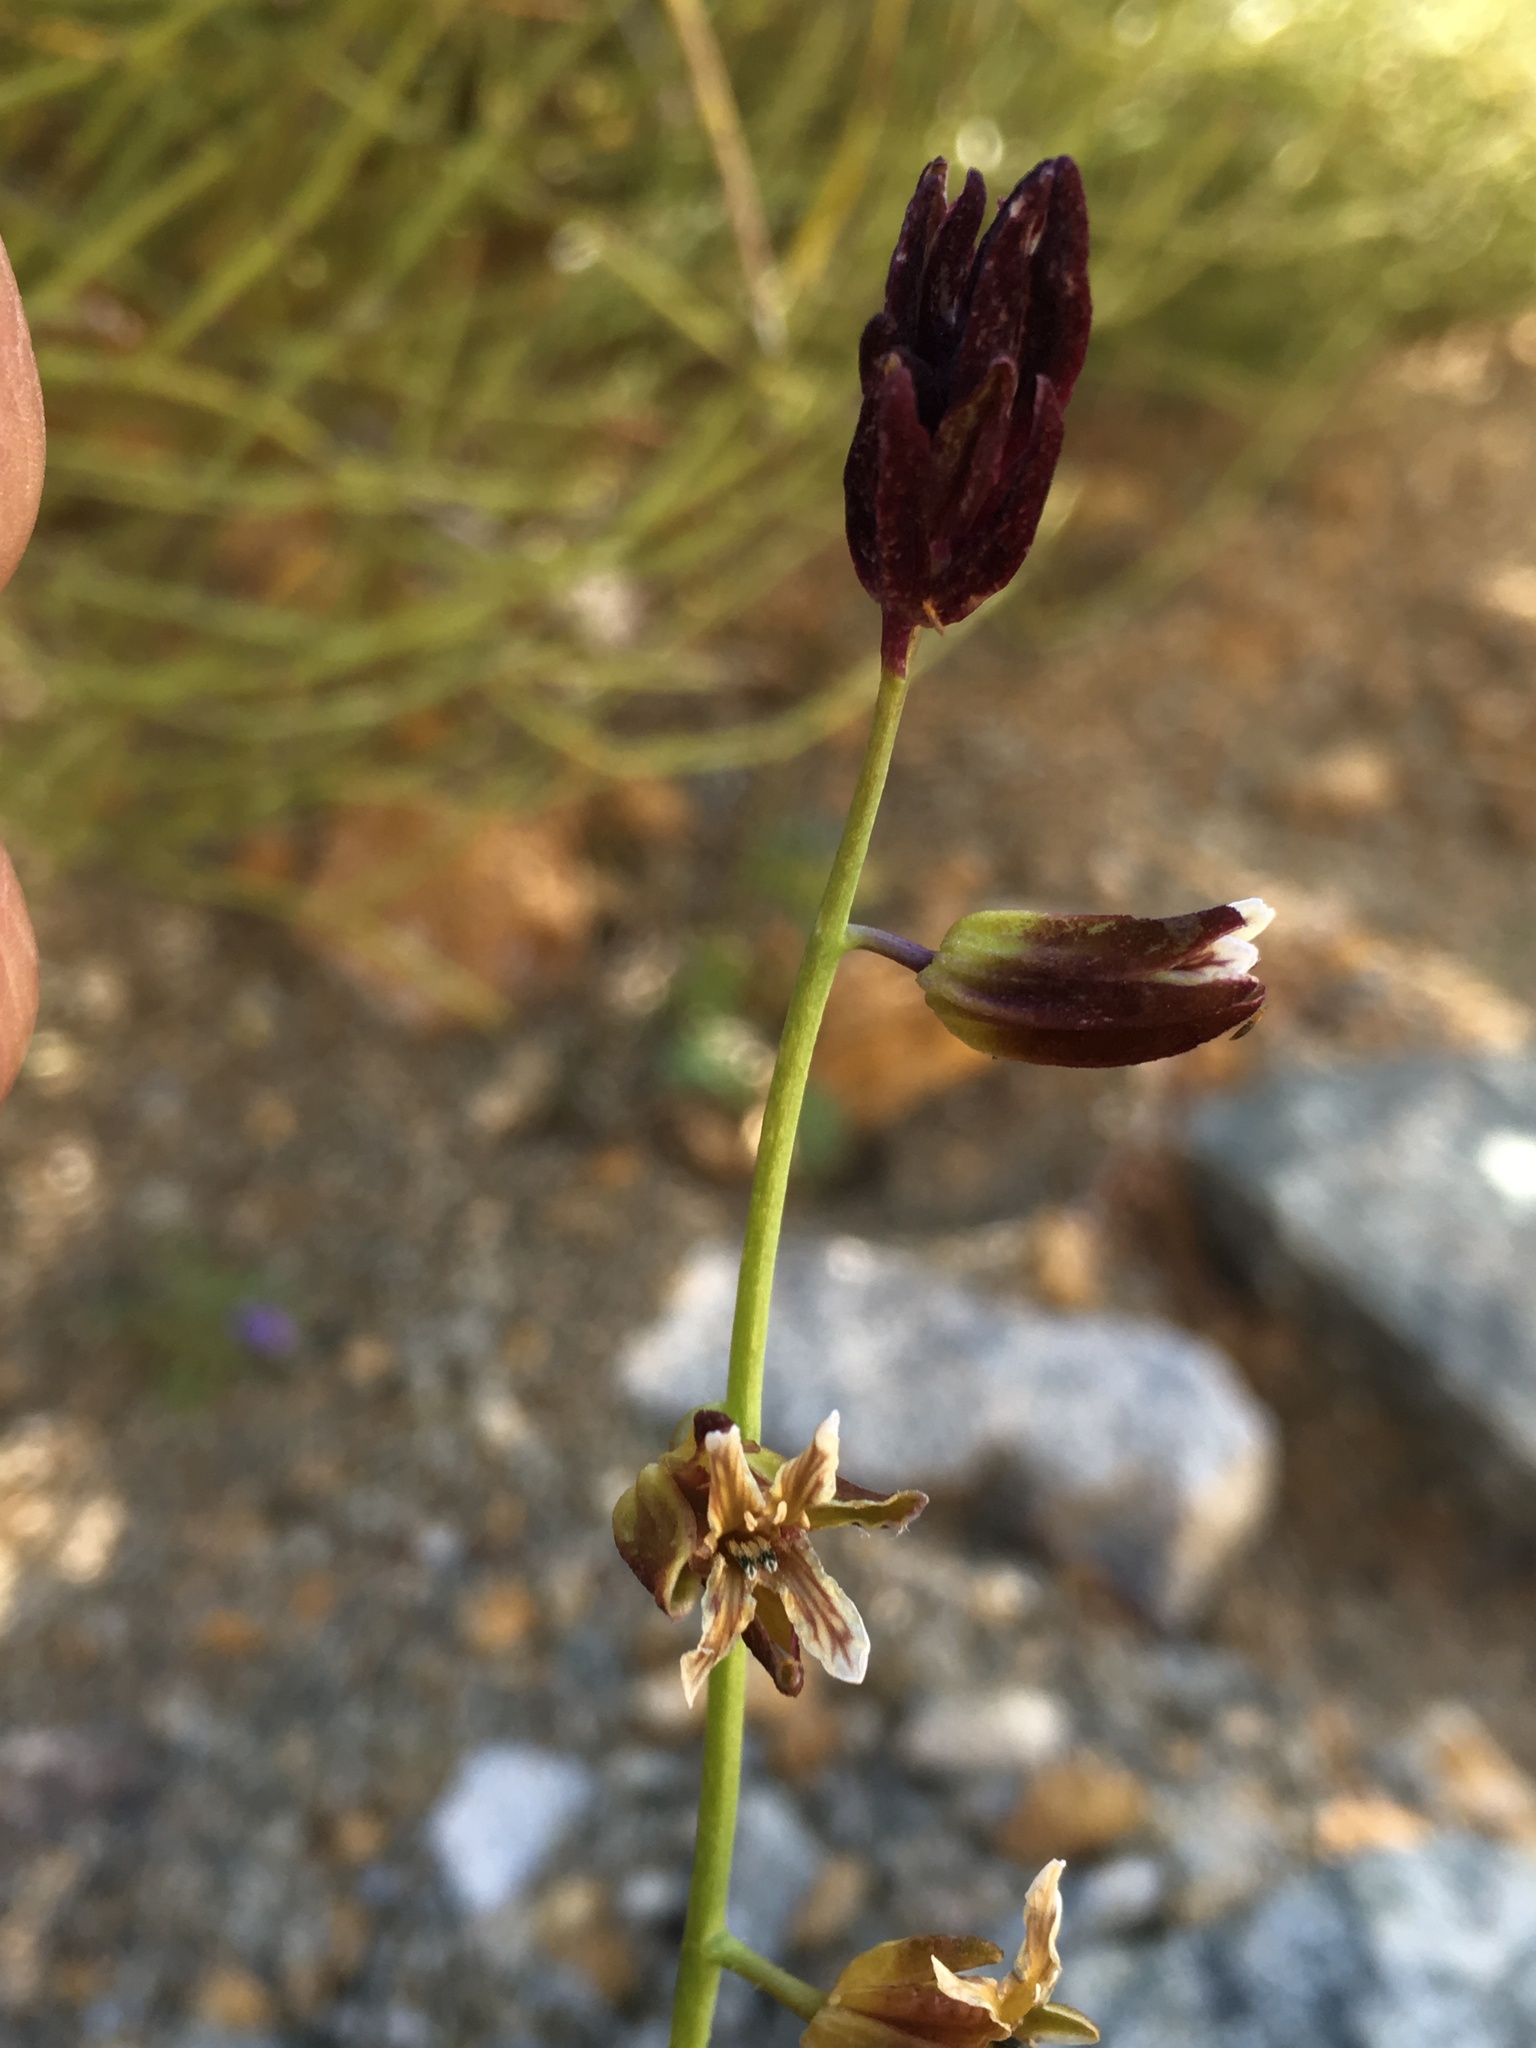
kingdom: Plantae
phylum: Tracheophyta
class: Magnoliopsida
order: Brassicales
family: Brassicaceae
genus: Streptanthus
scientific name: Streptanthus coulteri
